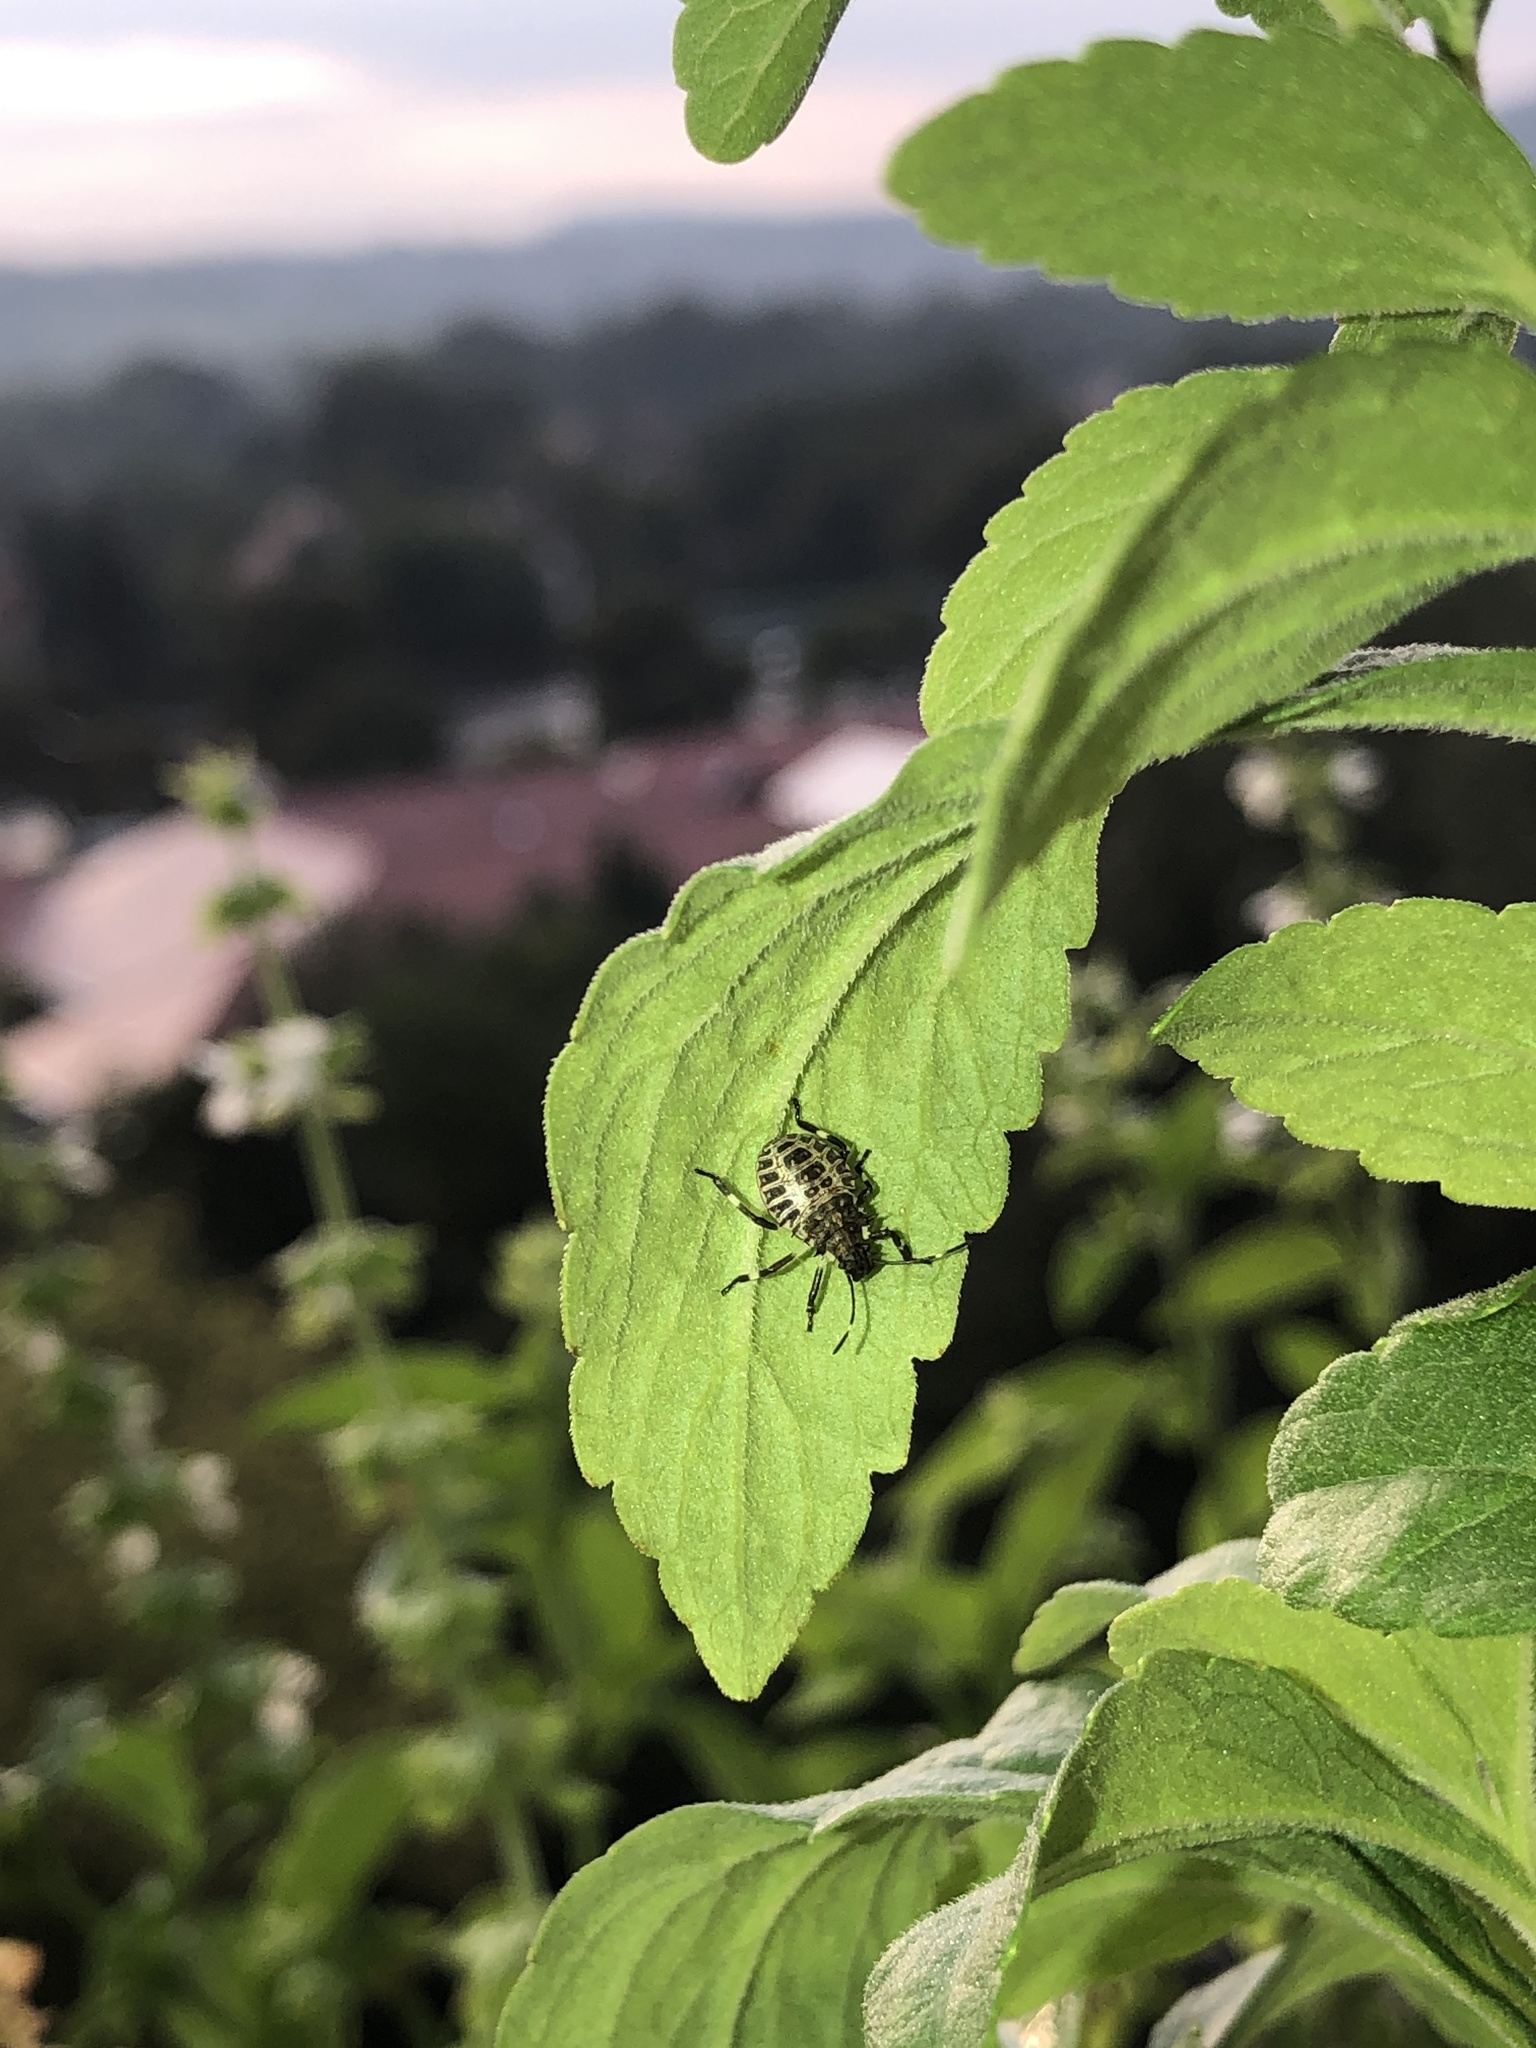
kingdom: Animalia
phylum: Arthropoda
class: Insecta
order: Hemiptera
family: Pentatomidae
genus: Halyomorpha
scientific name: Halyomorpha halys
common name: Brown marmorated stink bug
